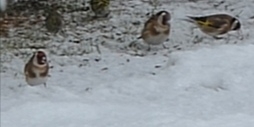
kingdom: Animalia
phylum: Chordata
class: Aves
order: Passeriformes
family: Fringillidae
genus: Carduelis
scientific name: Carduelis carduelis
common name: European goldfinch
